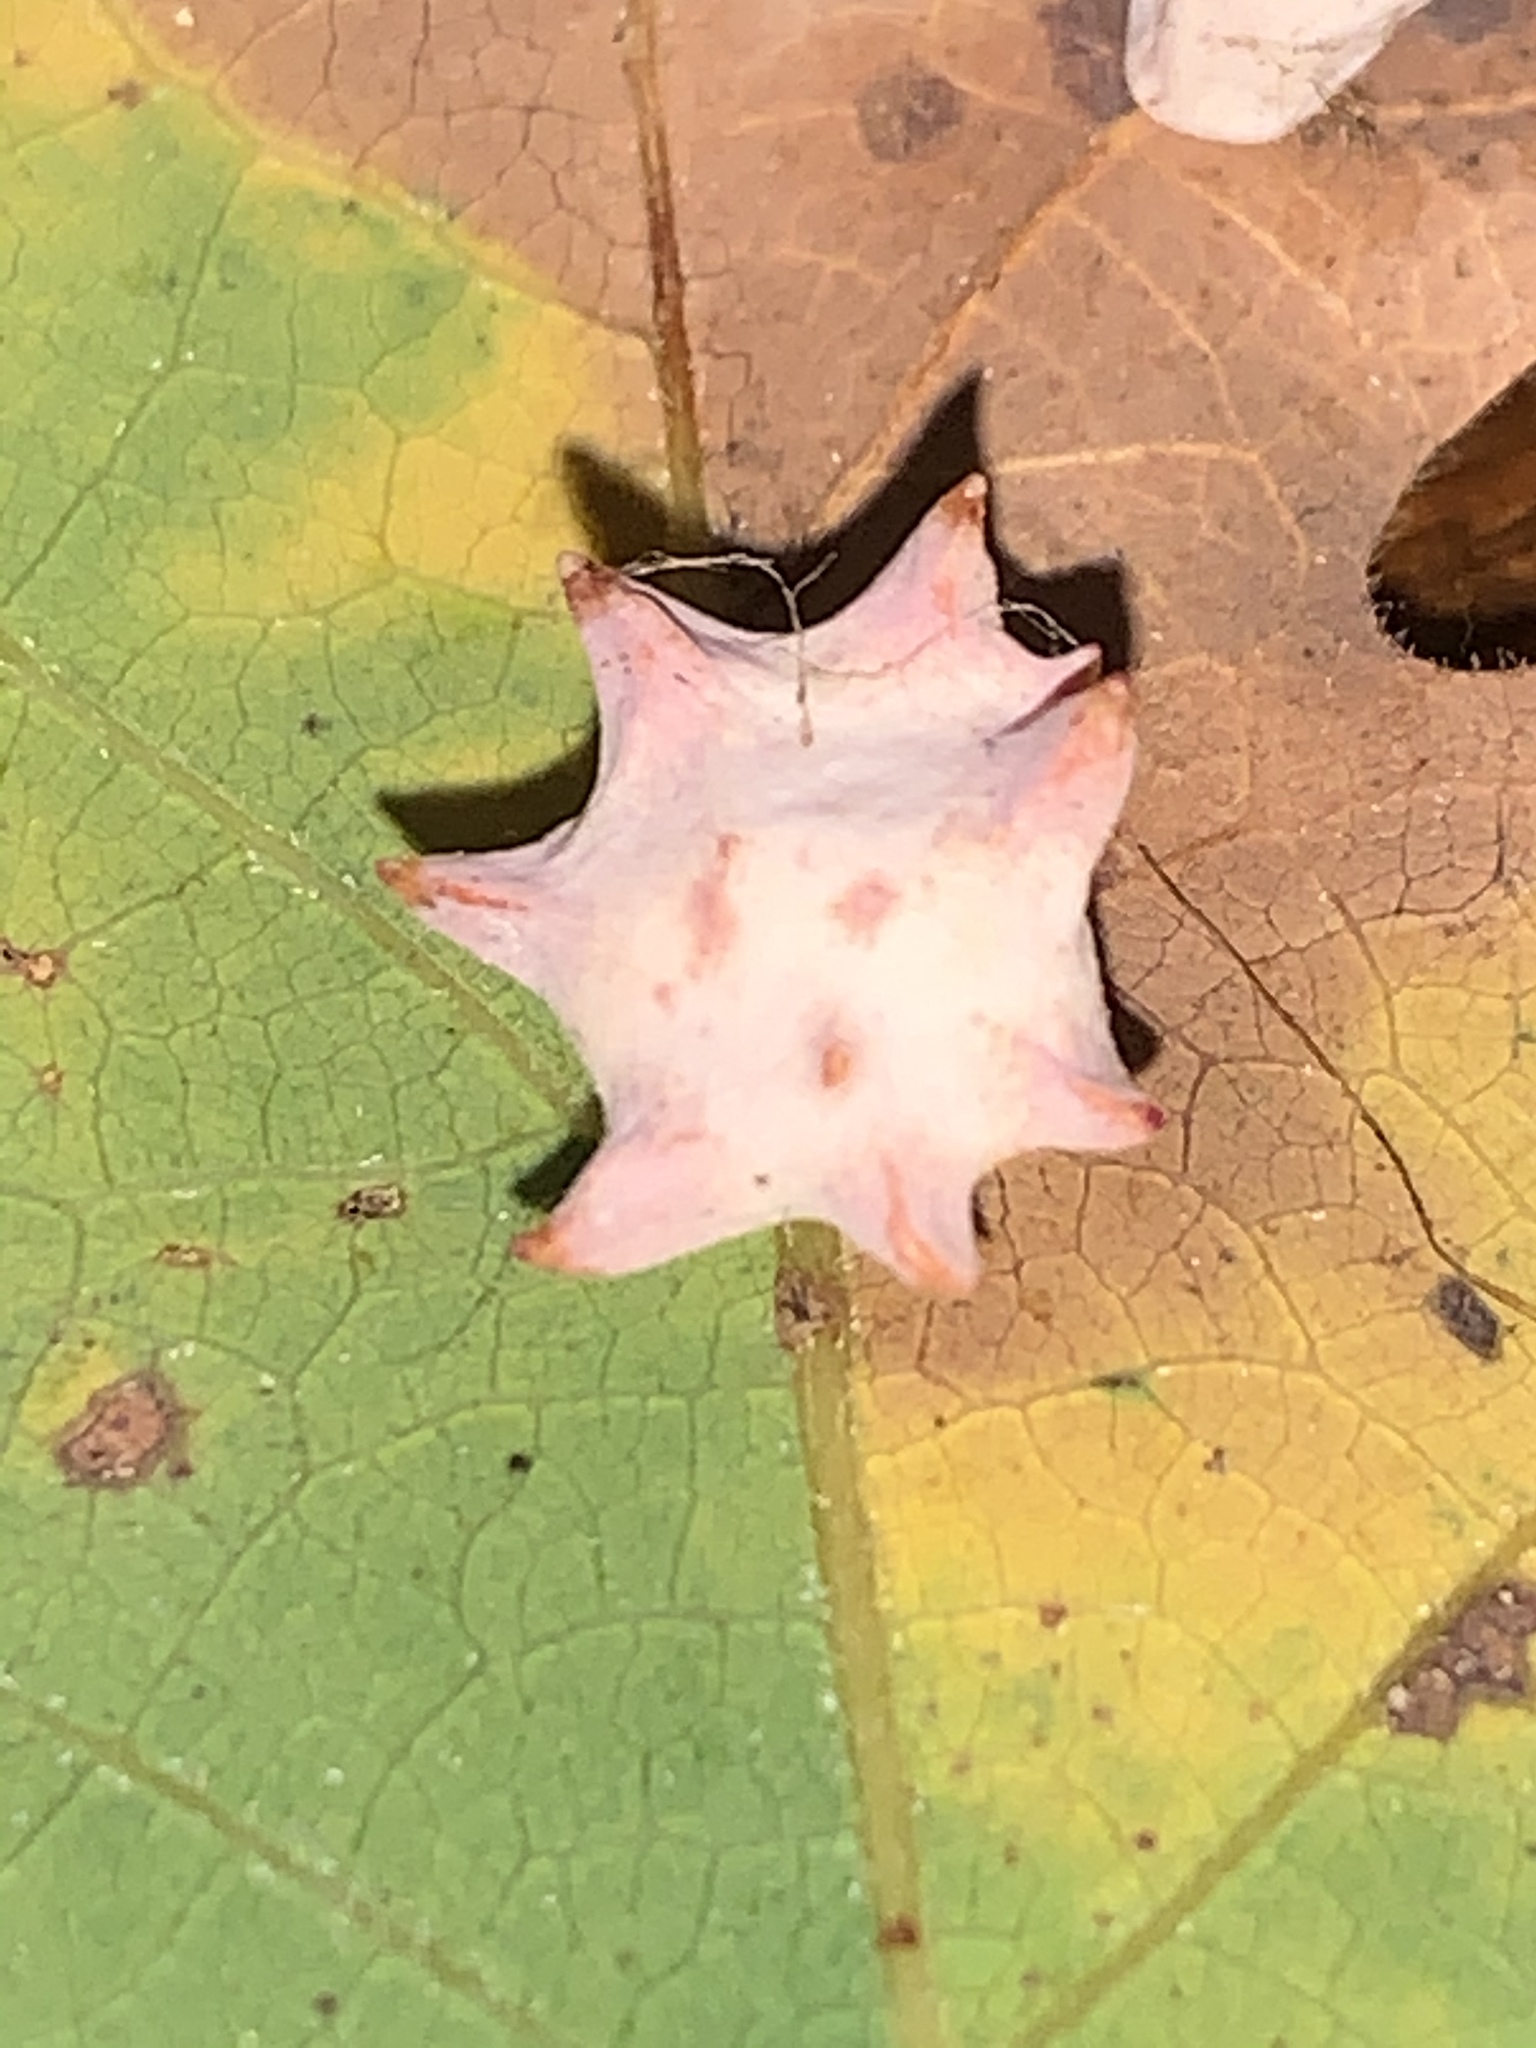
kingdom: Animalia
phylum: Arthropoda
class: Insecta
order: Hymenoptera
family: Cynipidae
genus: Cynips
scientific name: Cynips douglasi
